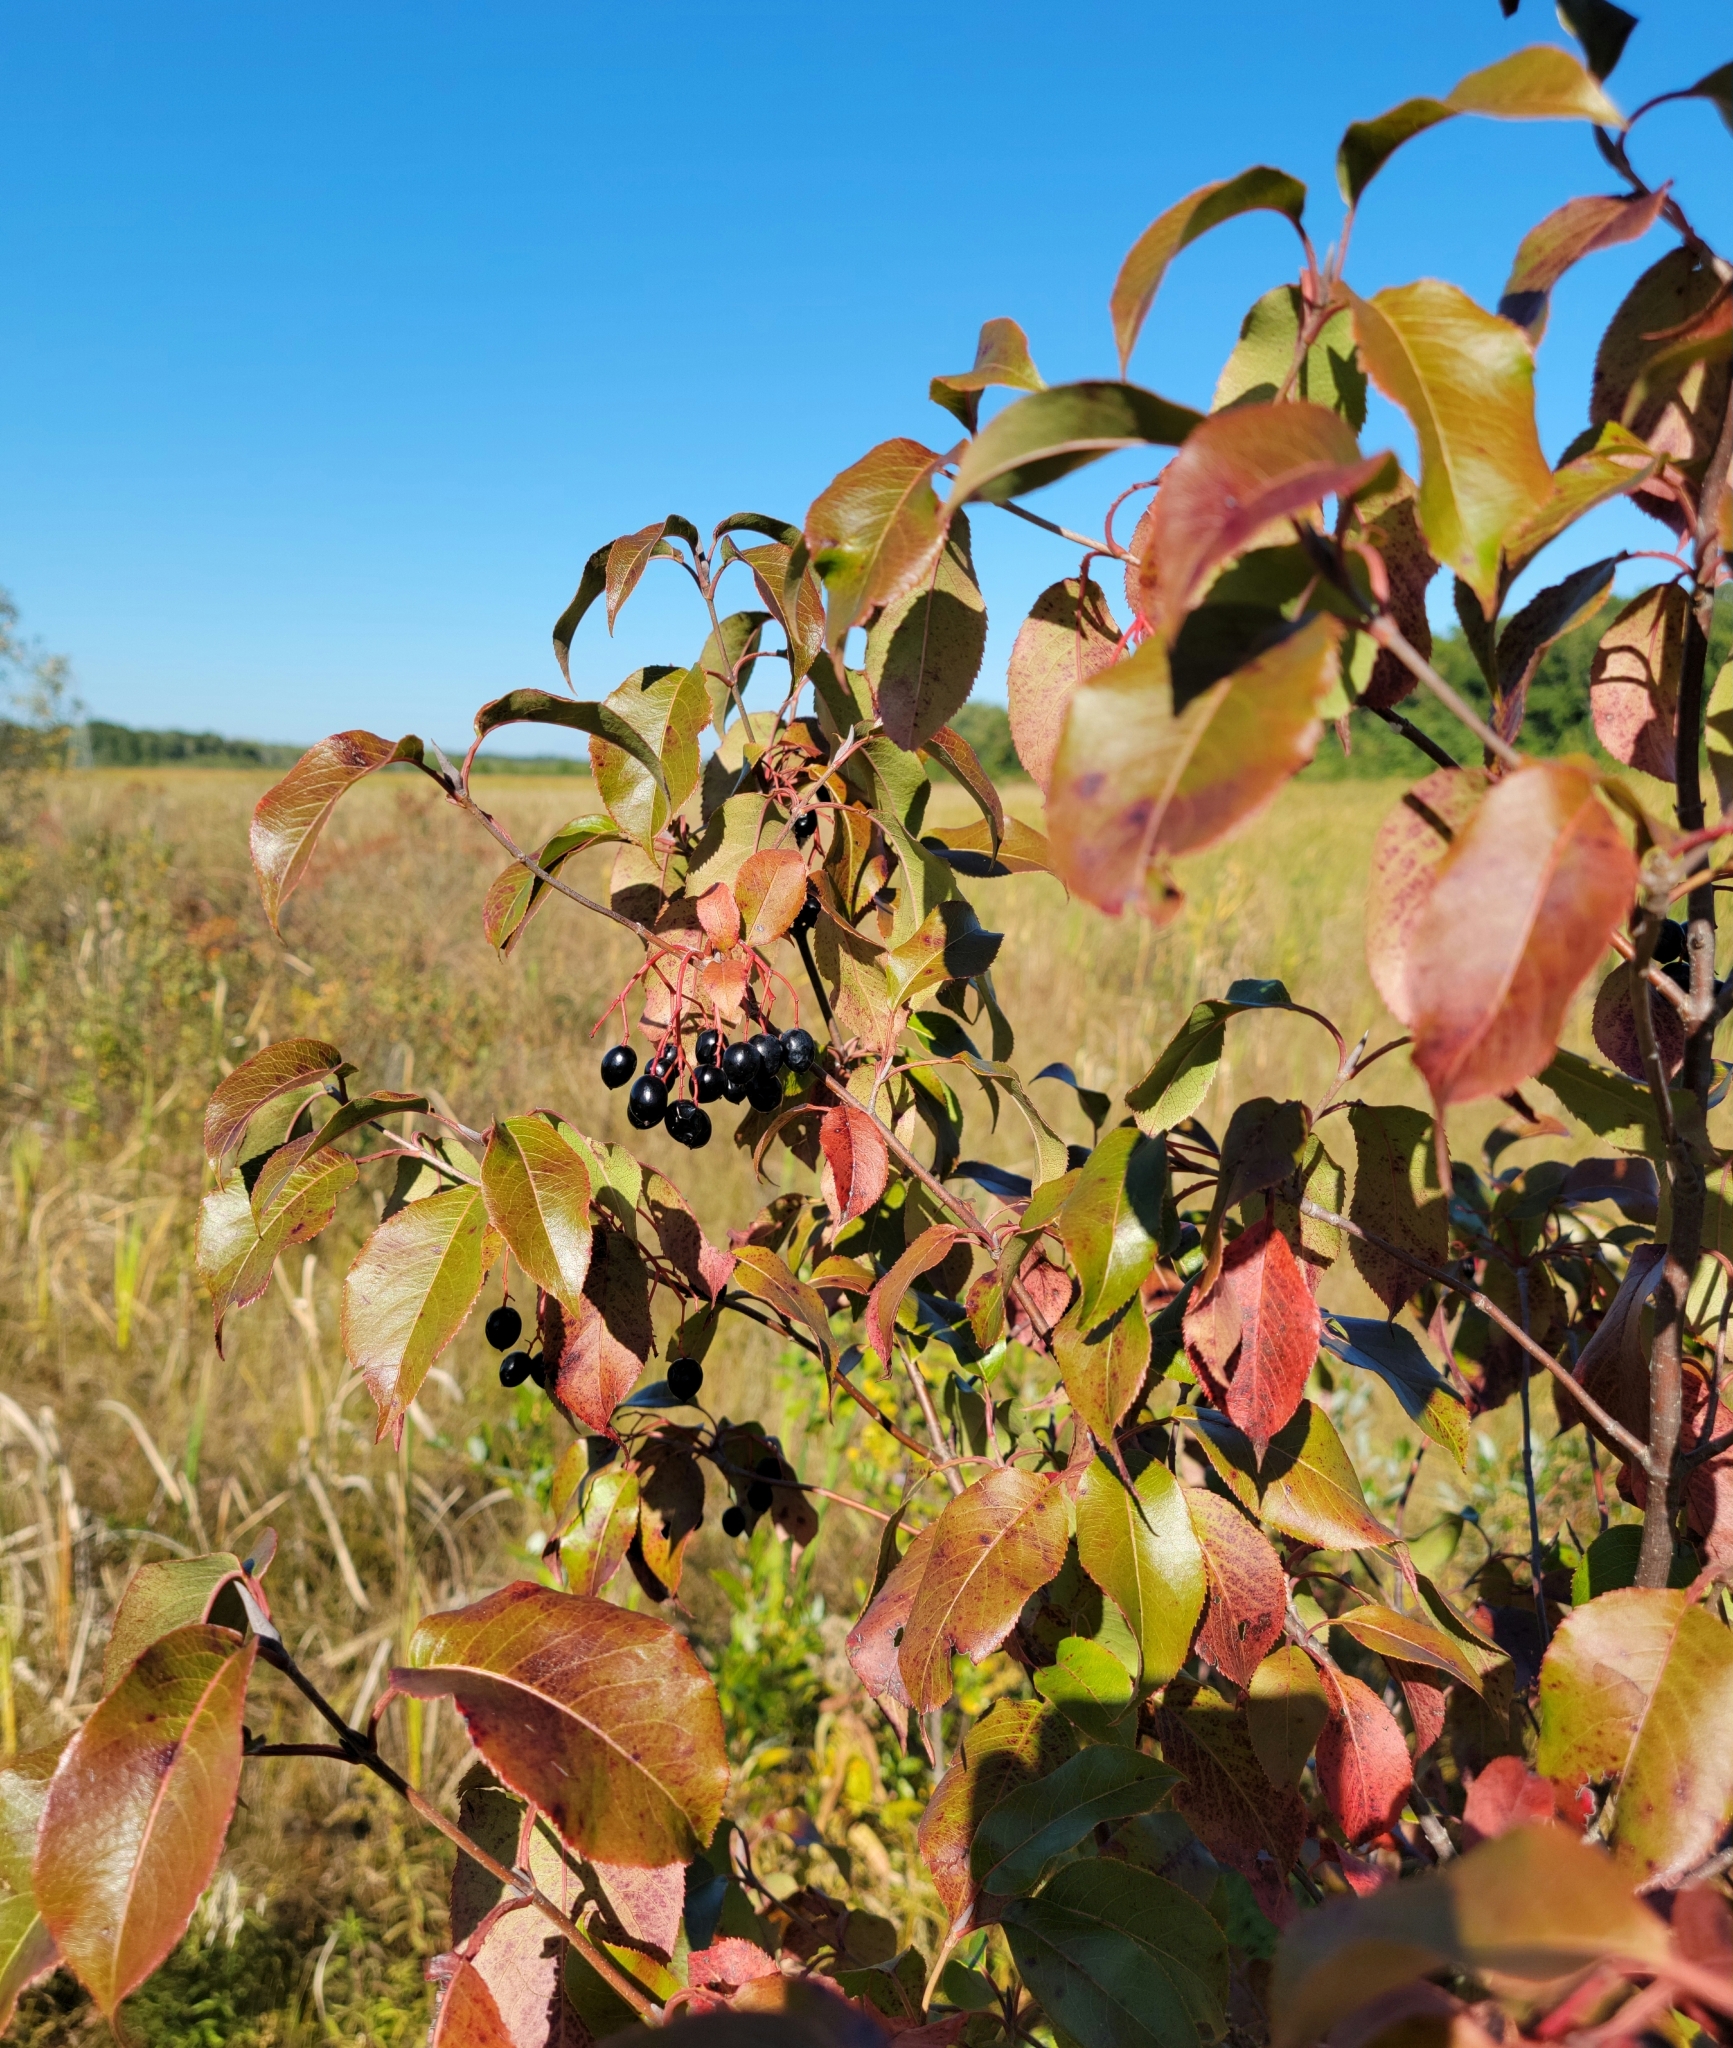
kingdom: Plantae
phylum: Tracheophyta
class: Magnoliopsida
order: Dipsacales
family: Viburnaceae
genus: Viburnum
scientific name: Viburnum lentago
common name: Black haw
